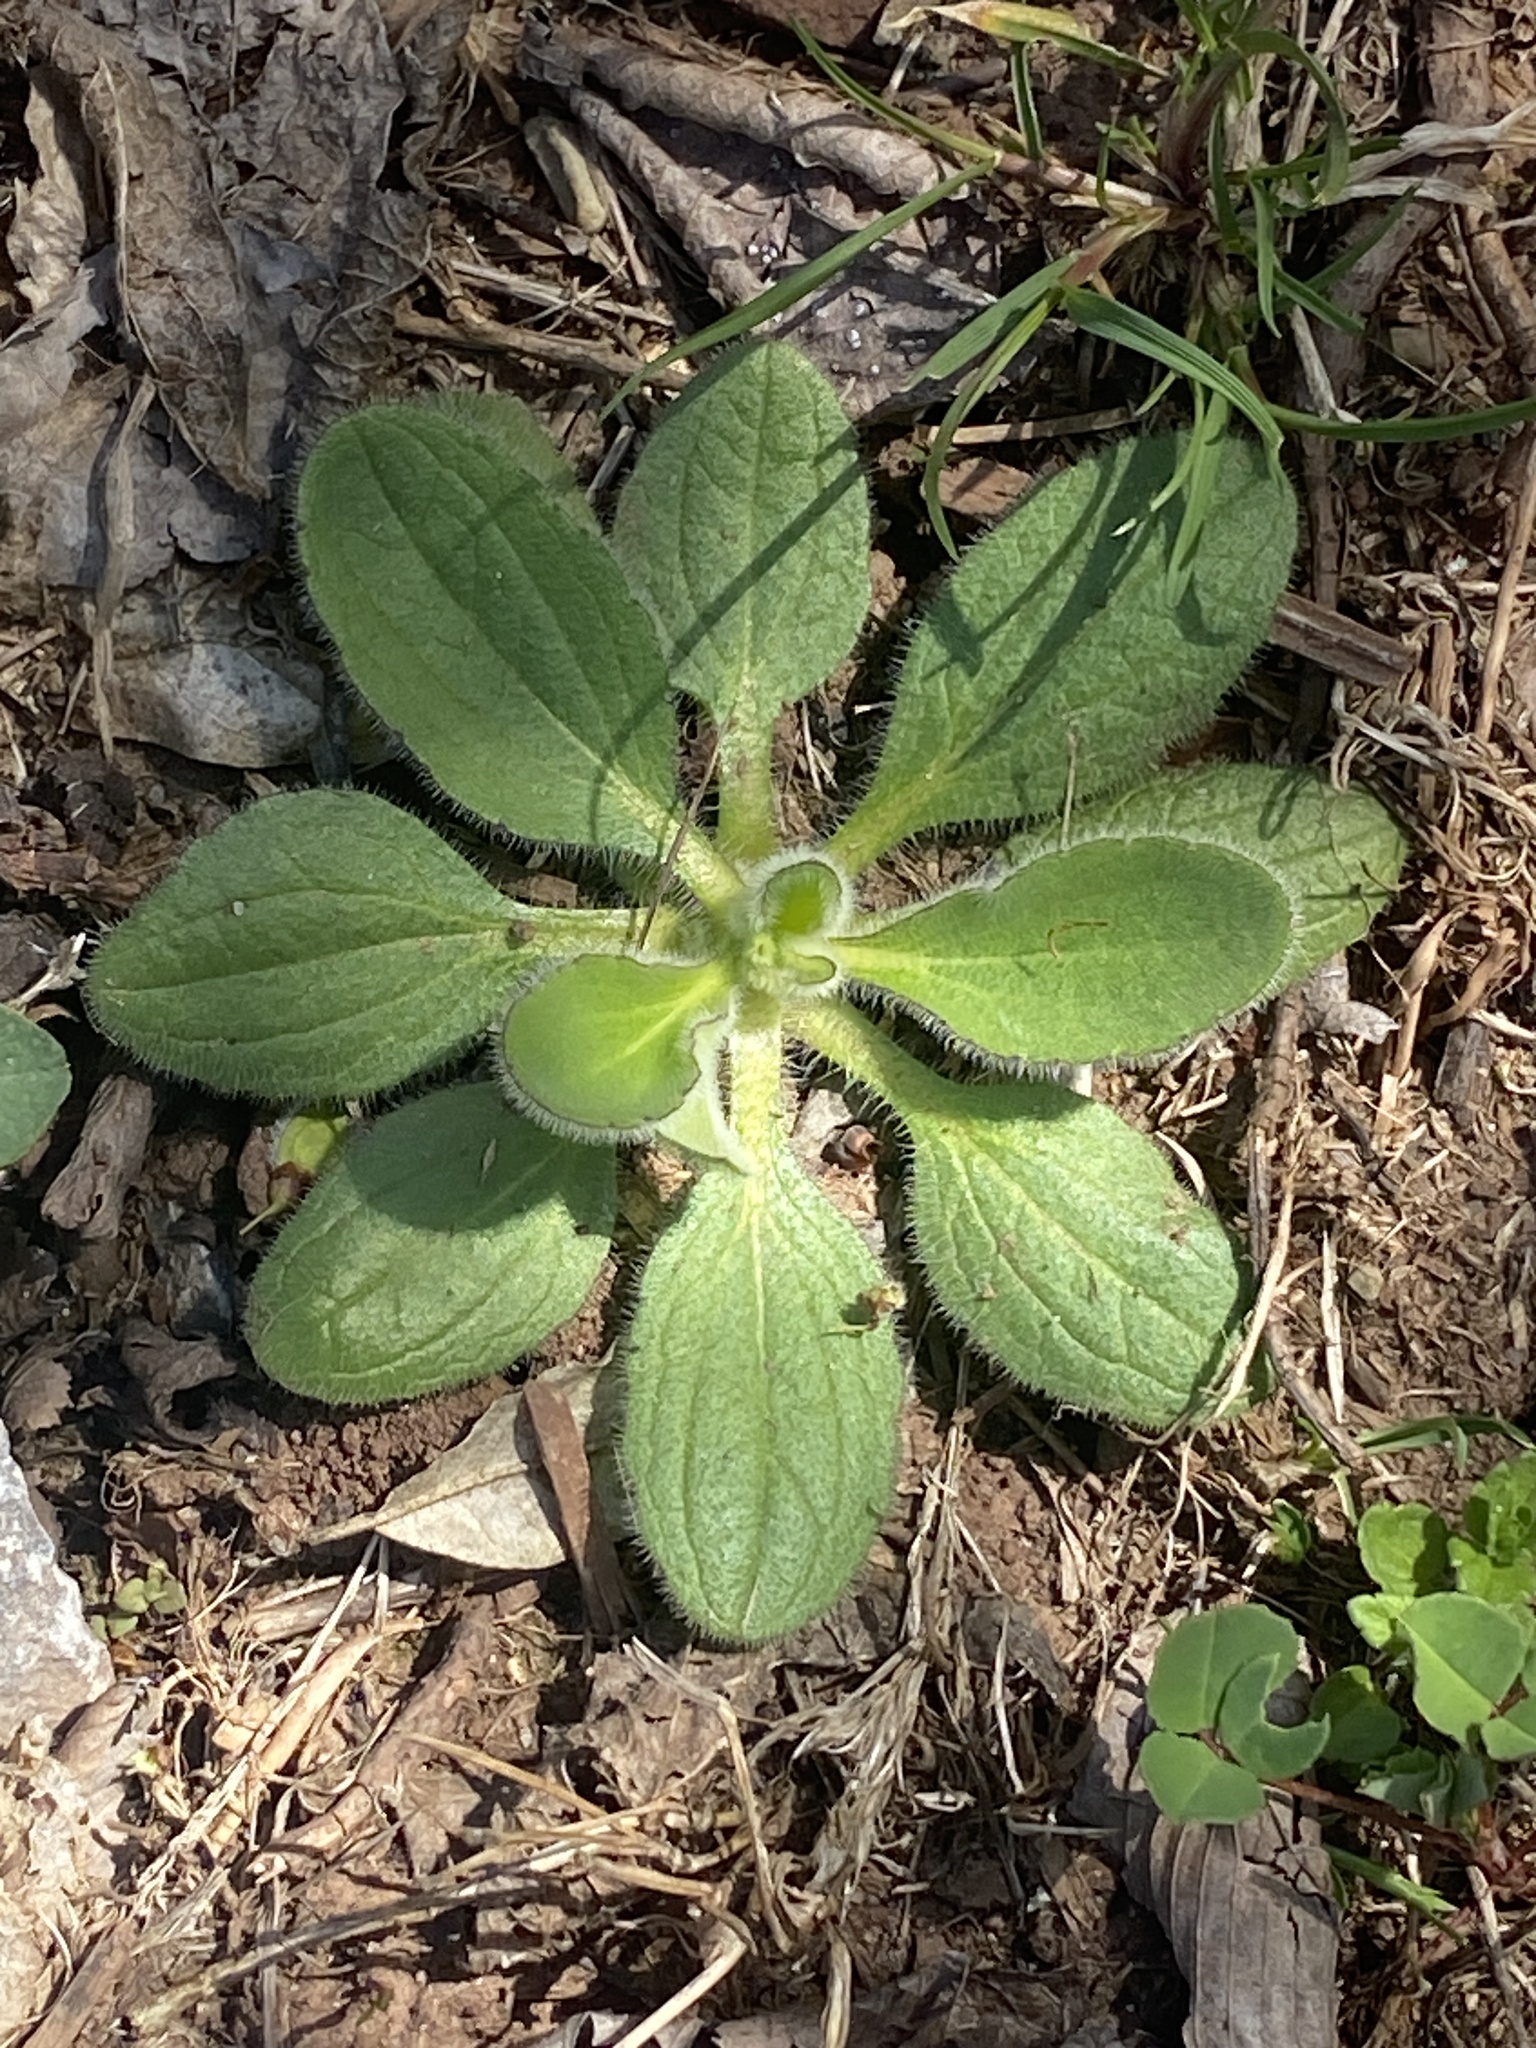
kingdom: Plantae
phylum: Tracheophyta
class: Magnoliopsida
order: Asterales
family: Asteraceae
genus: Rudbeckia
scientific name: Rudbeckia hirta
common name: Black-eyed-susan
